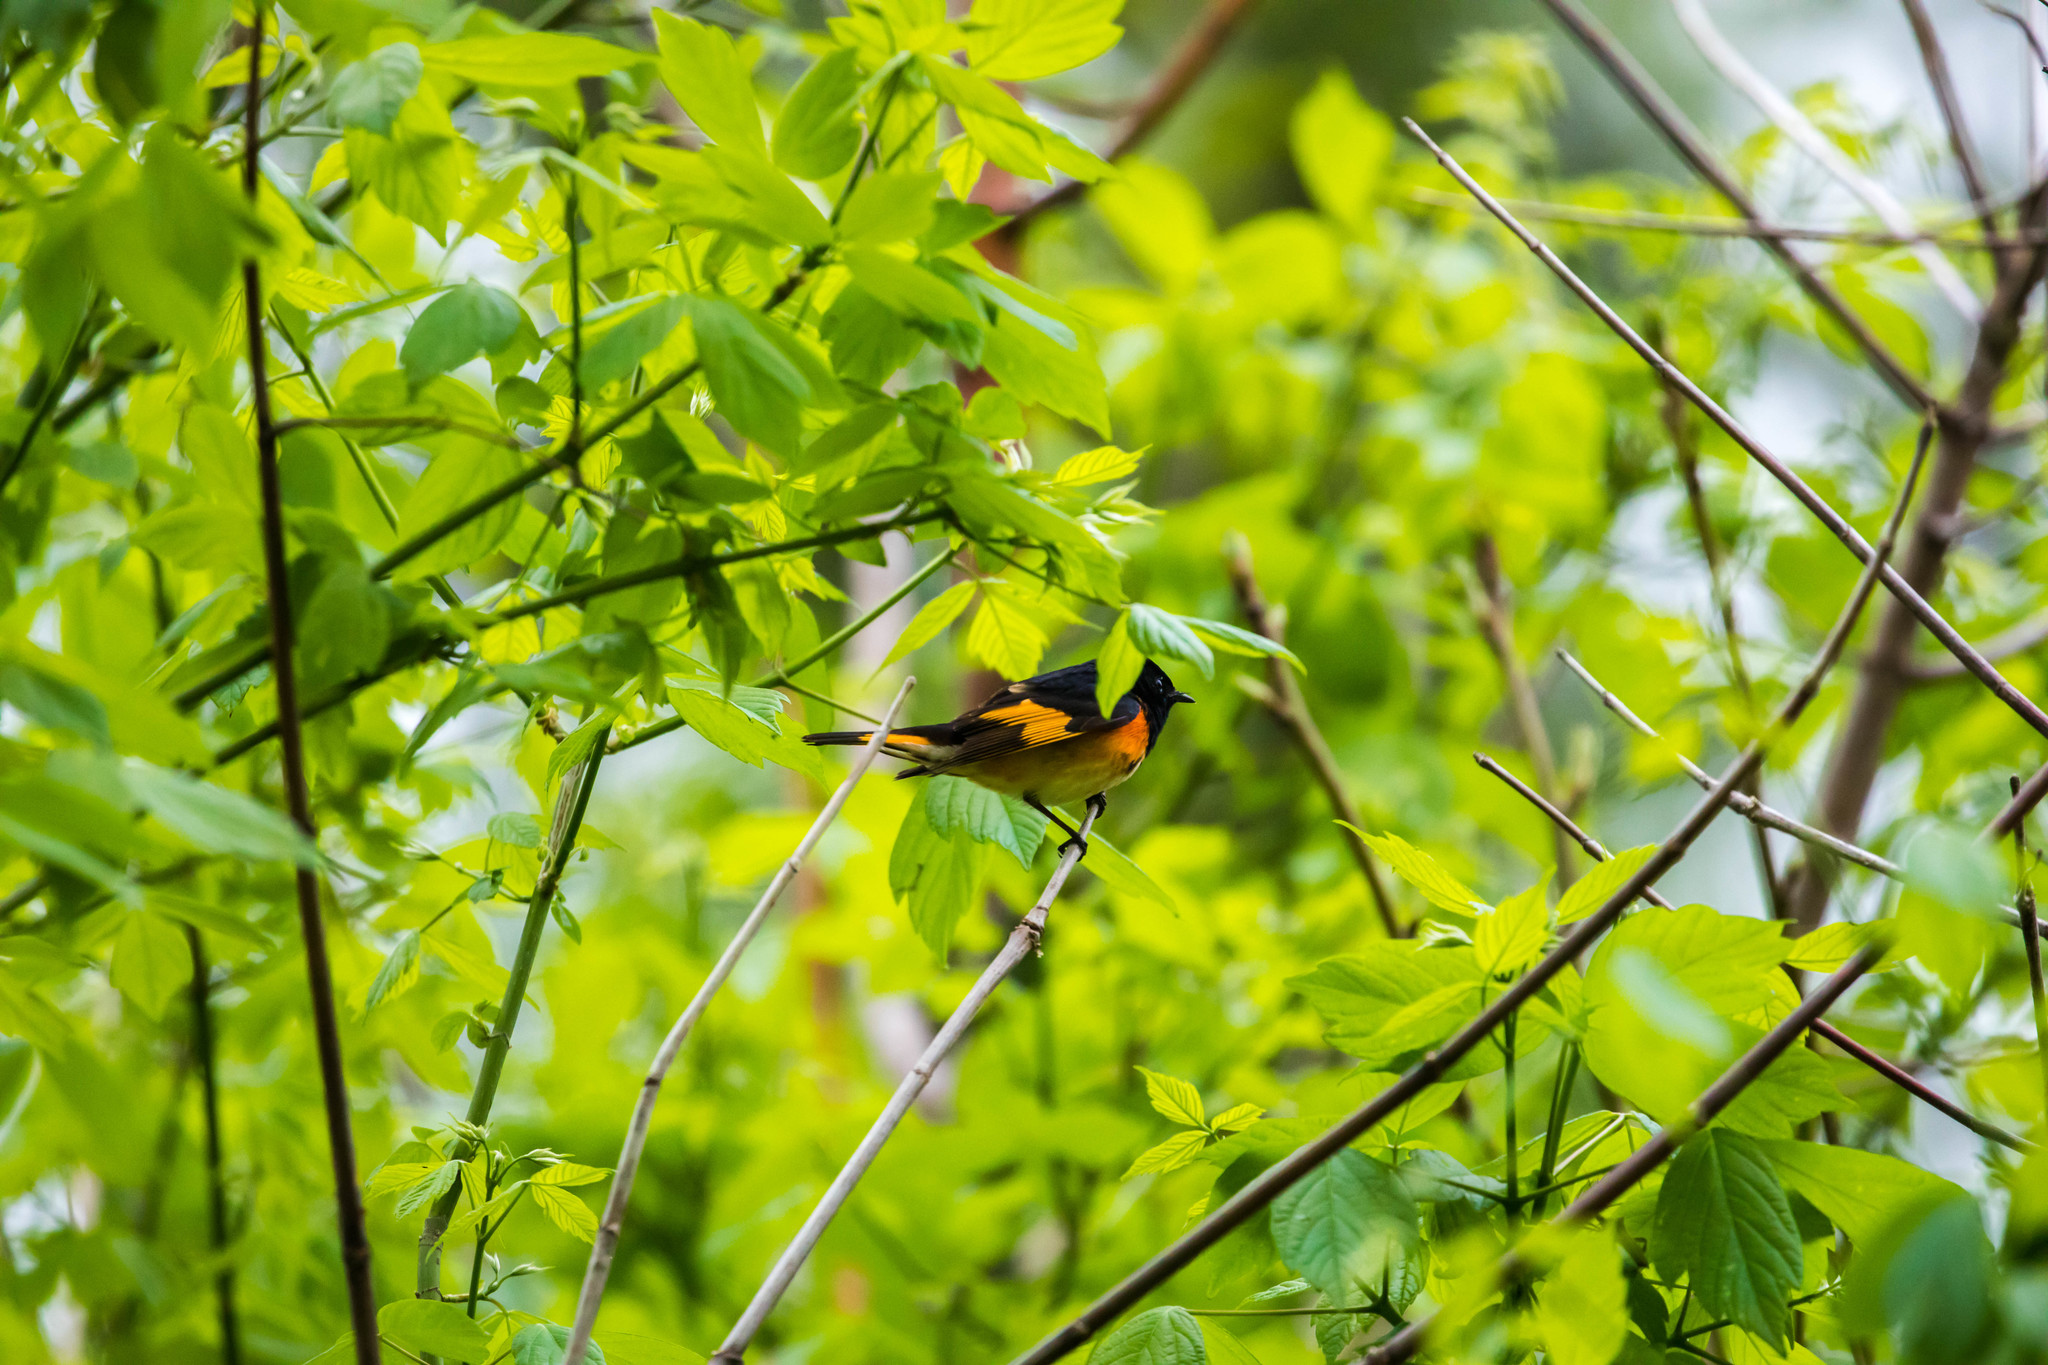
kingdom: Animalia
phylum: Chordata
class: Aves
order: Passeriformes
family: Parulidae
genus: Setophaga
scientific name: Setophaga ruticilla
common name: American redstart
